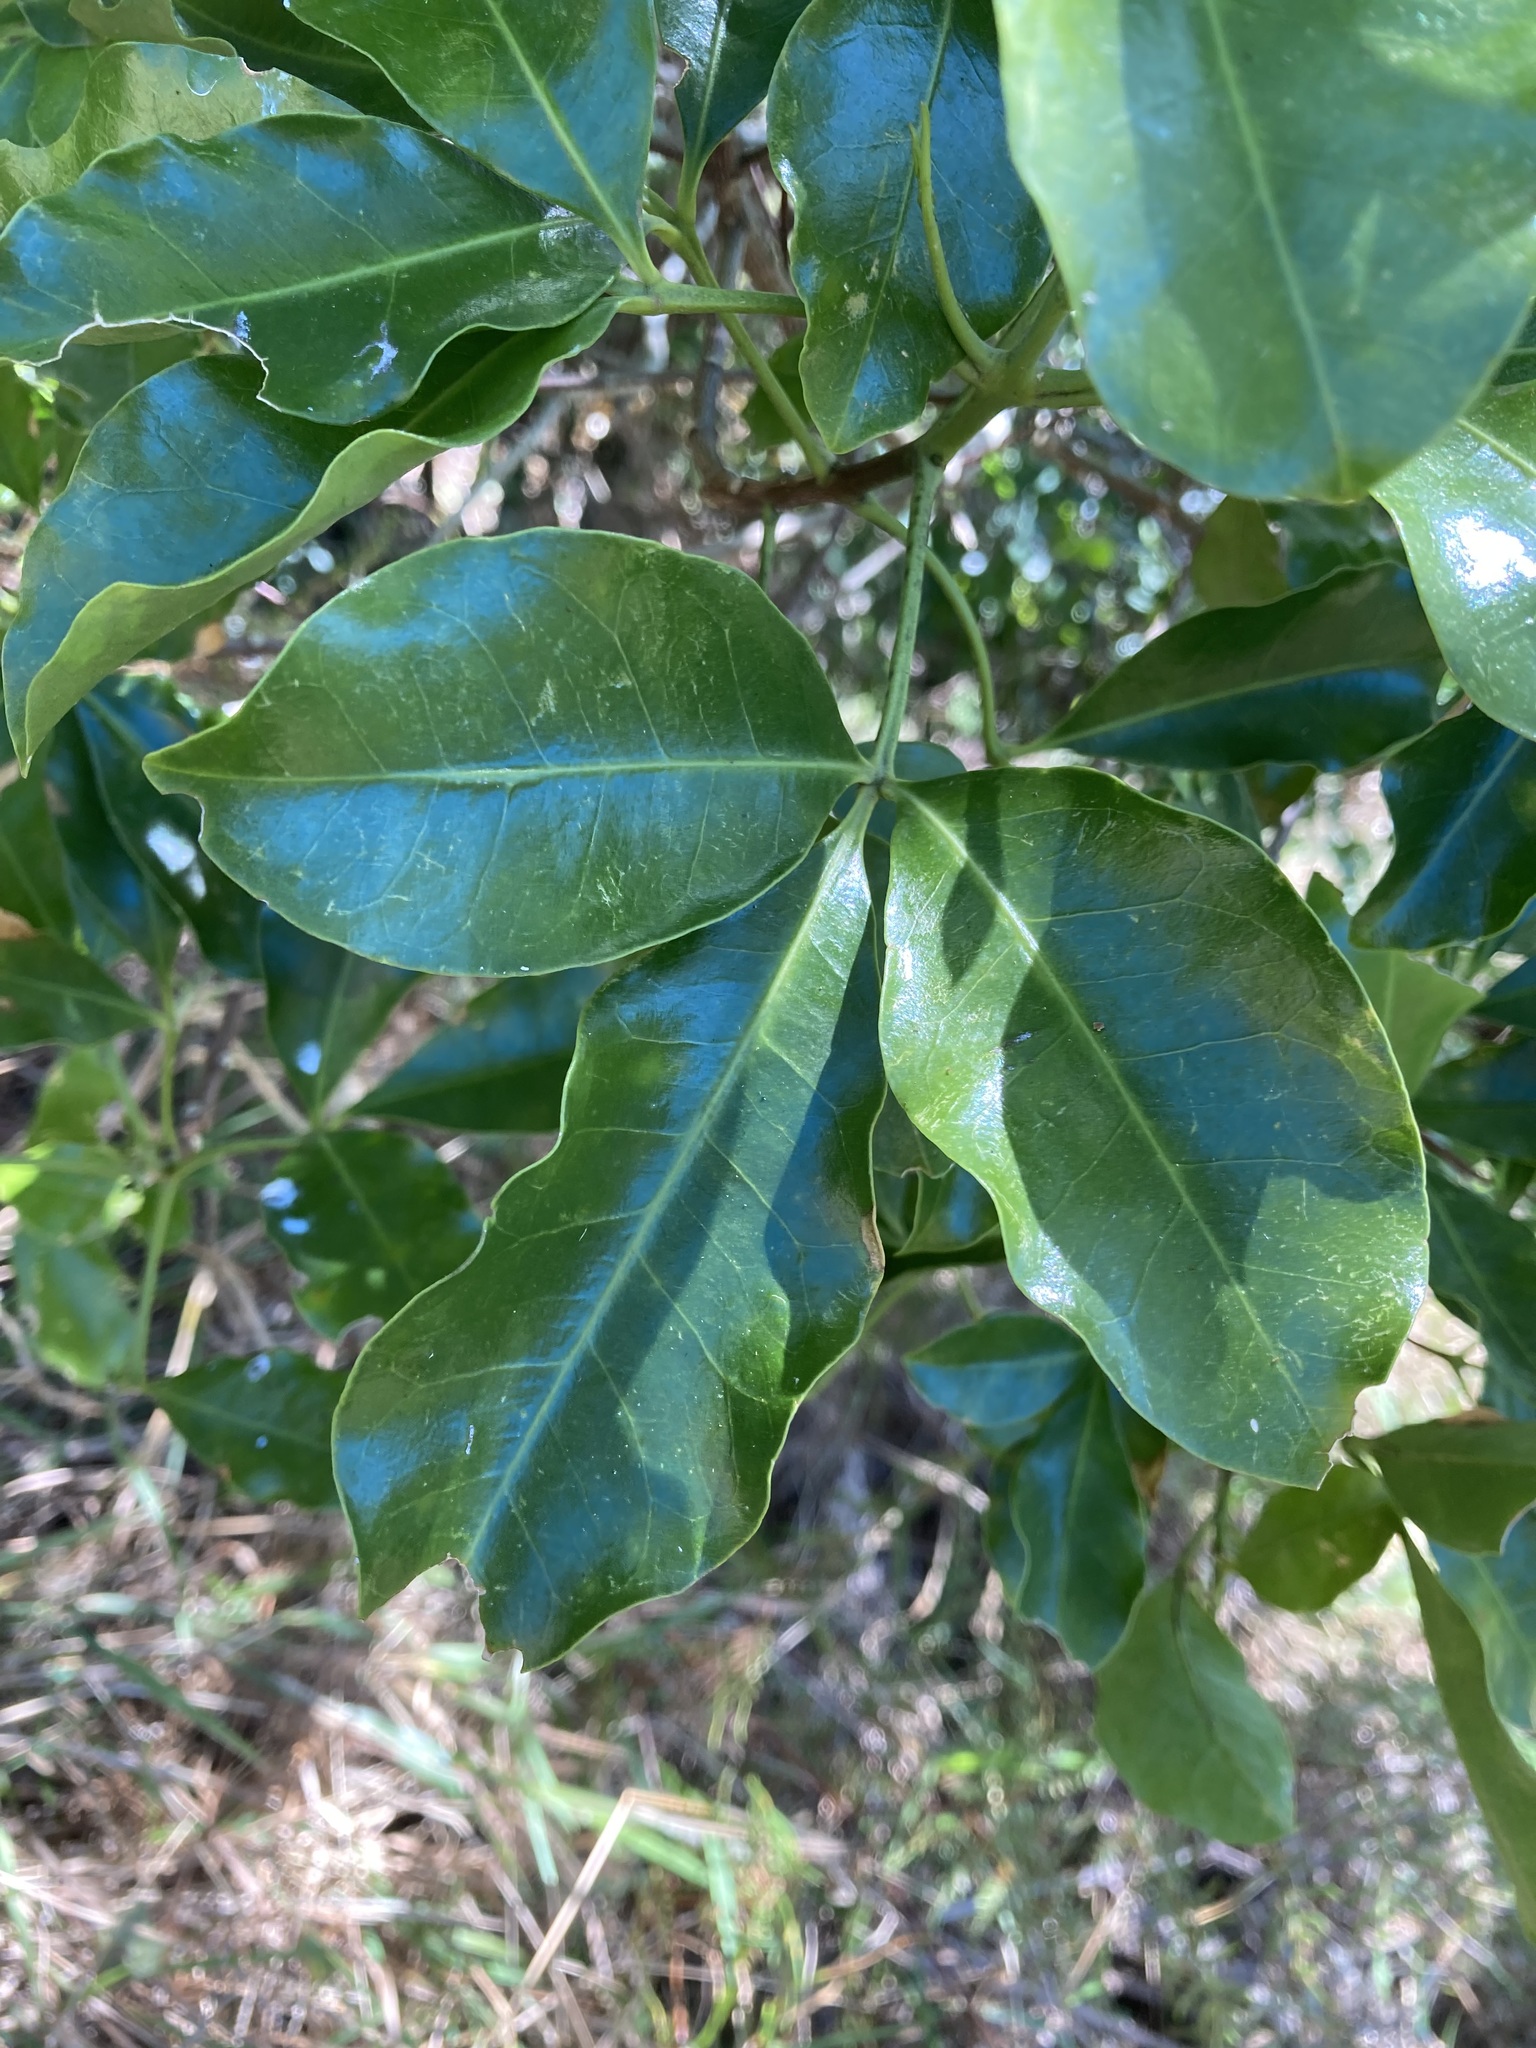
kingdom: Plantae
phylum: Tracheophyta
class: Magnoliopsida
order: Sapindales
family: Rutaceae
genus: Melicope
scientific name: Melicope ternata
